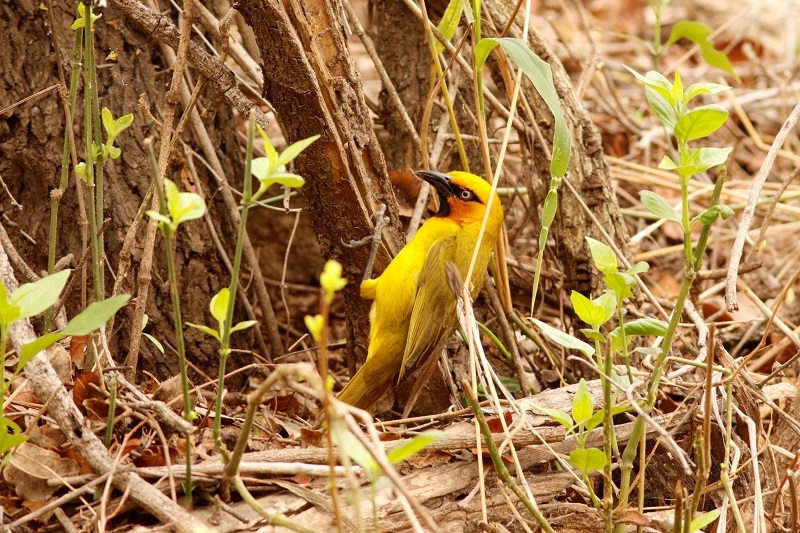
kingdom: Animalia
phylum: Chordata
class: Aves
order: Passeriformes
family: Ploceidae
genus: Ploceus
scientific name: Ploceus ocularis
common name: Spectacled weaver
